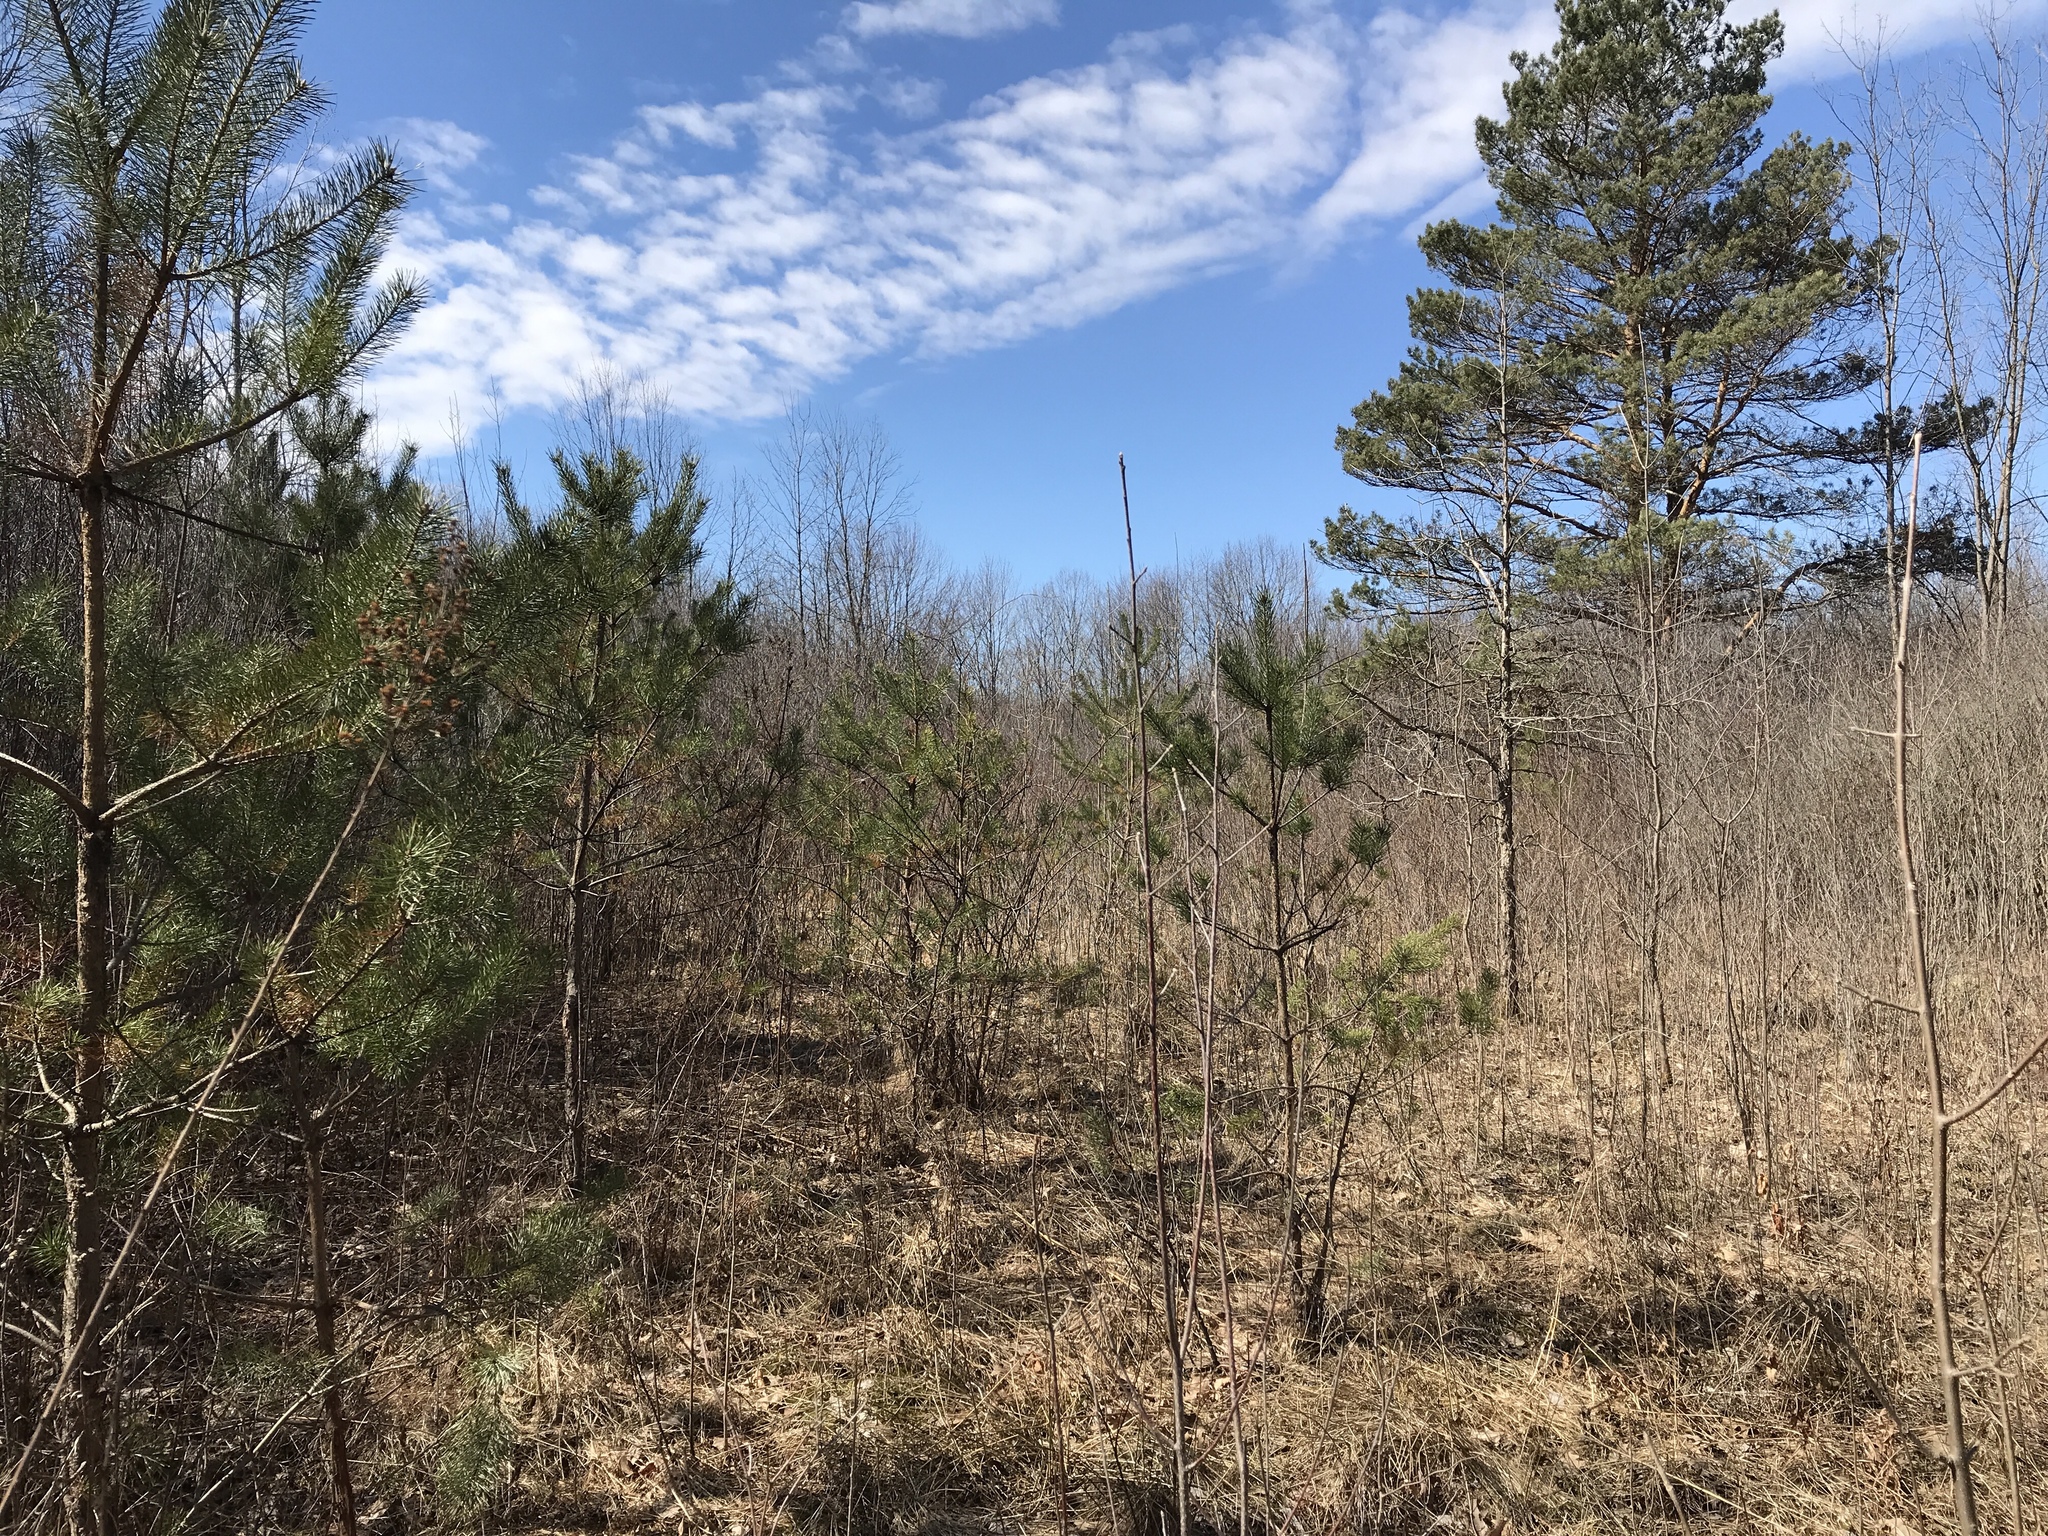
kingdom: Plantae
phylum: Tracheophyta
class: Pinopsida
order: Pinales
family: Pinaceae
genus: Pinus
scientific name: Pinus sylvestris
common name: Scots pine
